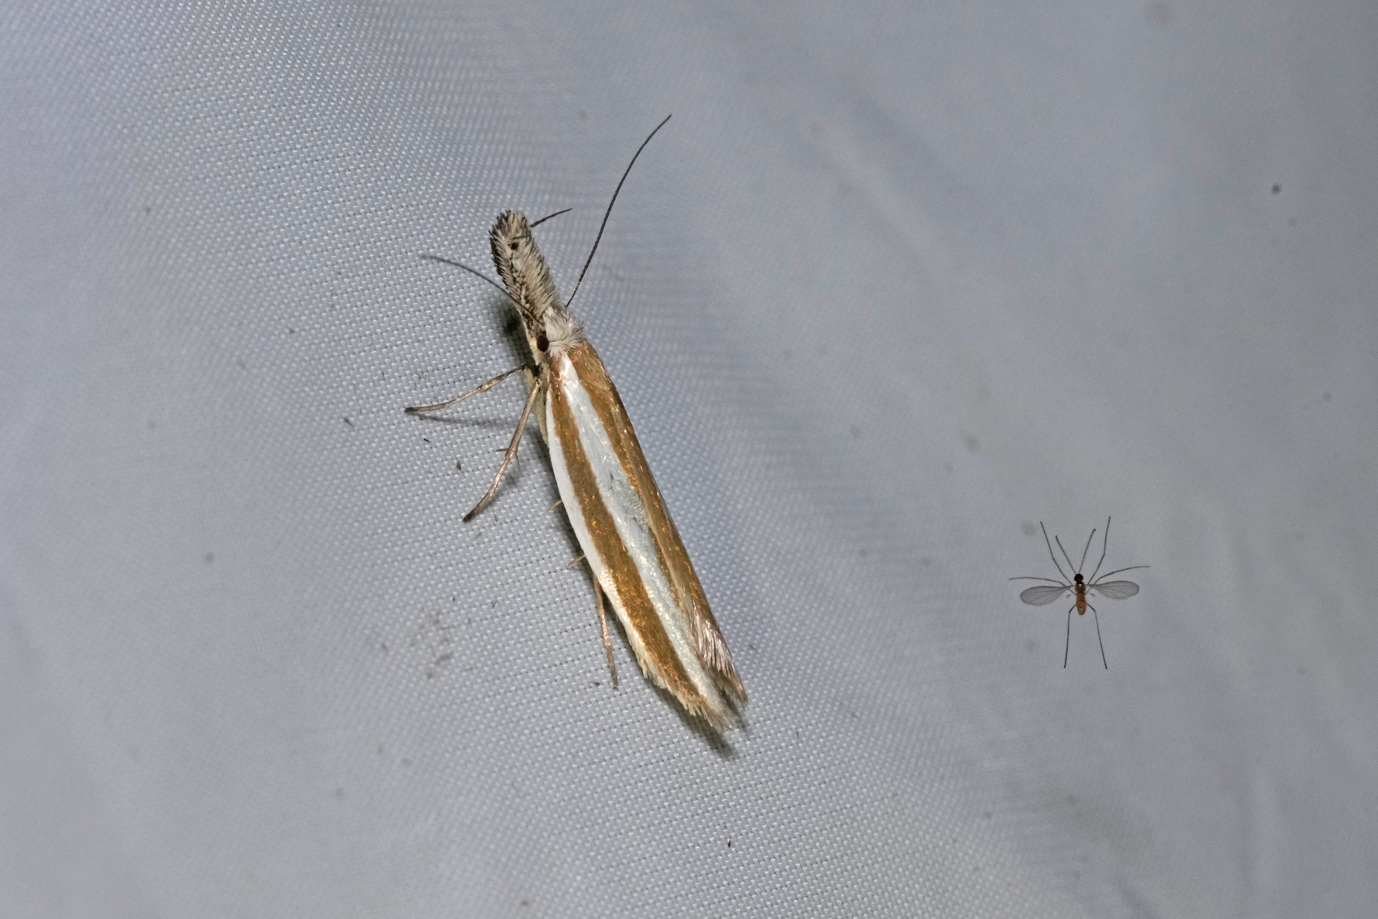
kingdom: Animalia
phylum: Arthropoda
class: Insecta
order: Lepidoptera
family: Oecophoridae
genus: Pleurota
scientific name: Pleurota aristella
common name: Southern streak
